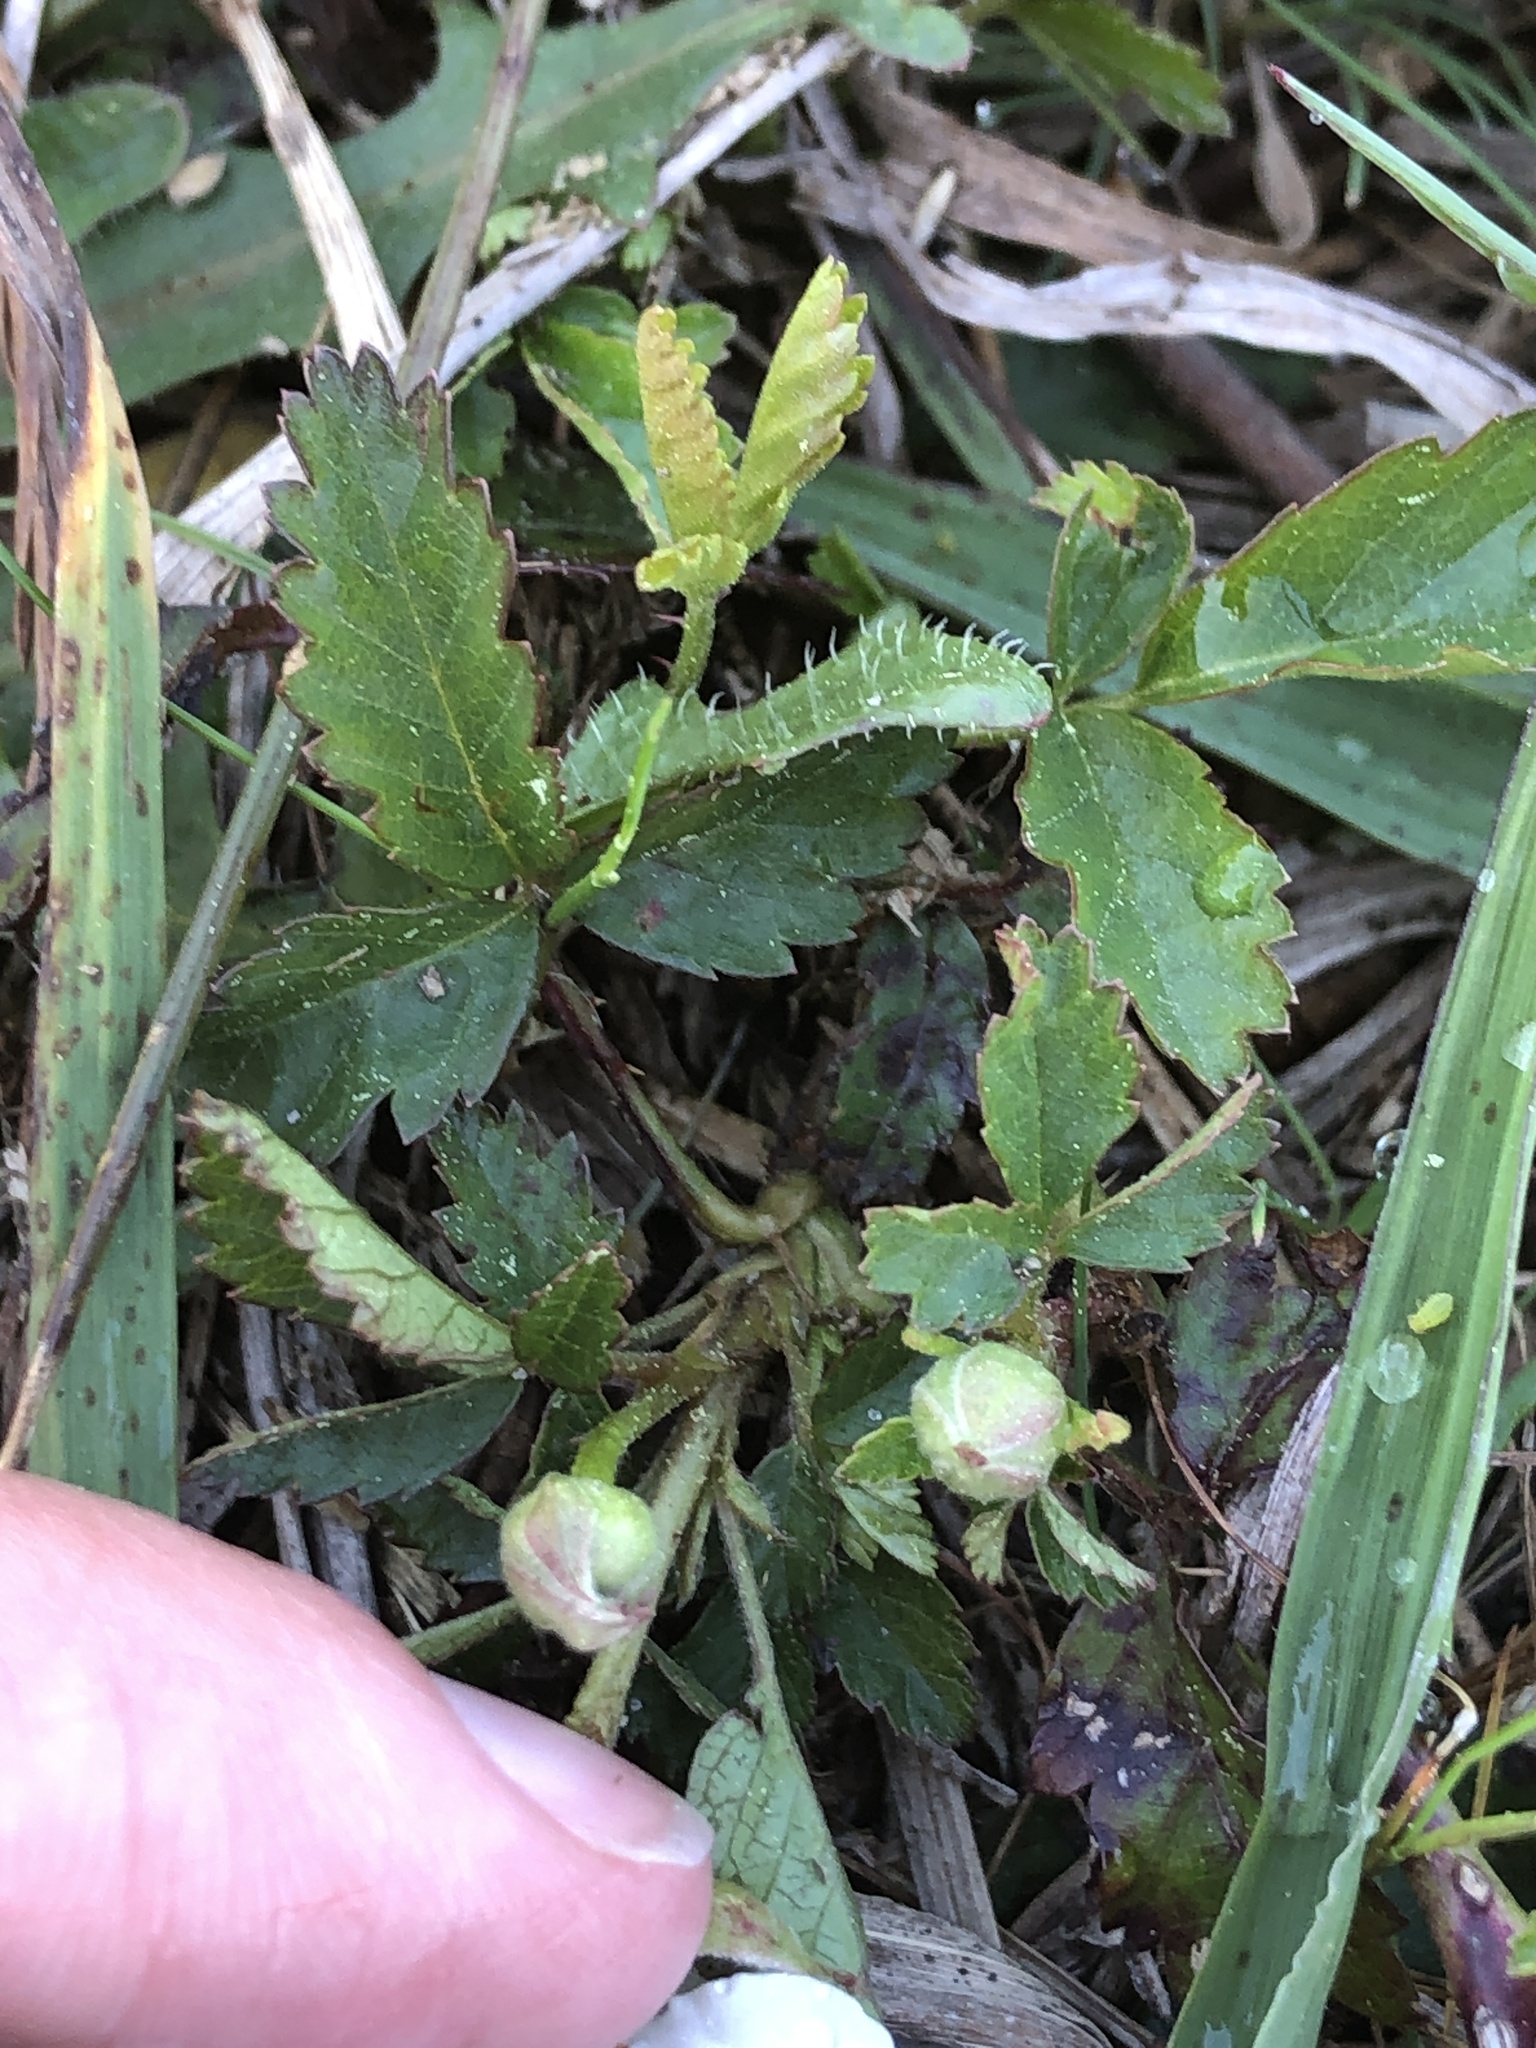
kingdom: Plantae
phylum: Tracheophyta
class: Magnoliopsida
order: Rosales
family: Rosaceae
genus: Rubus
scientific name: Rubus trivialis
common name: Southern dewberry
